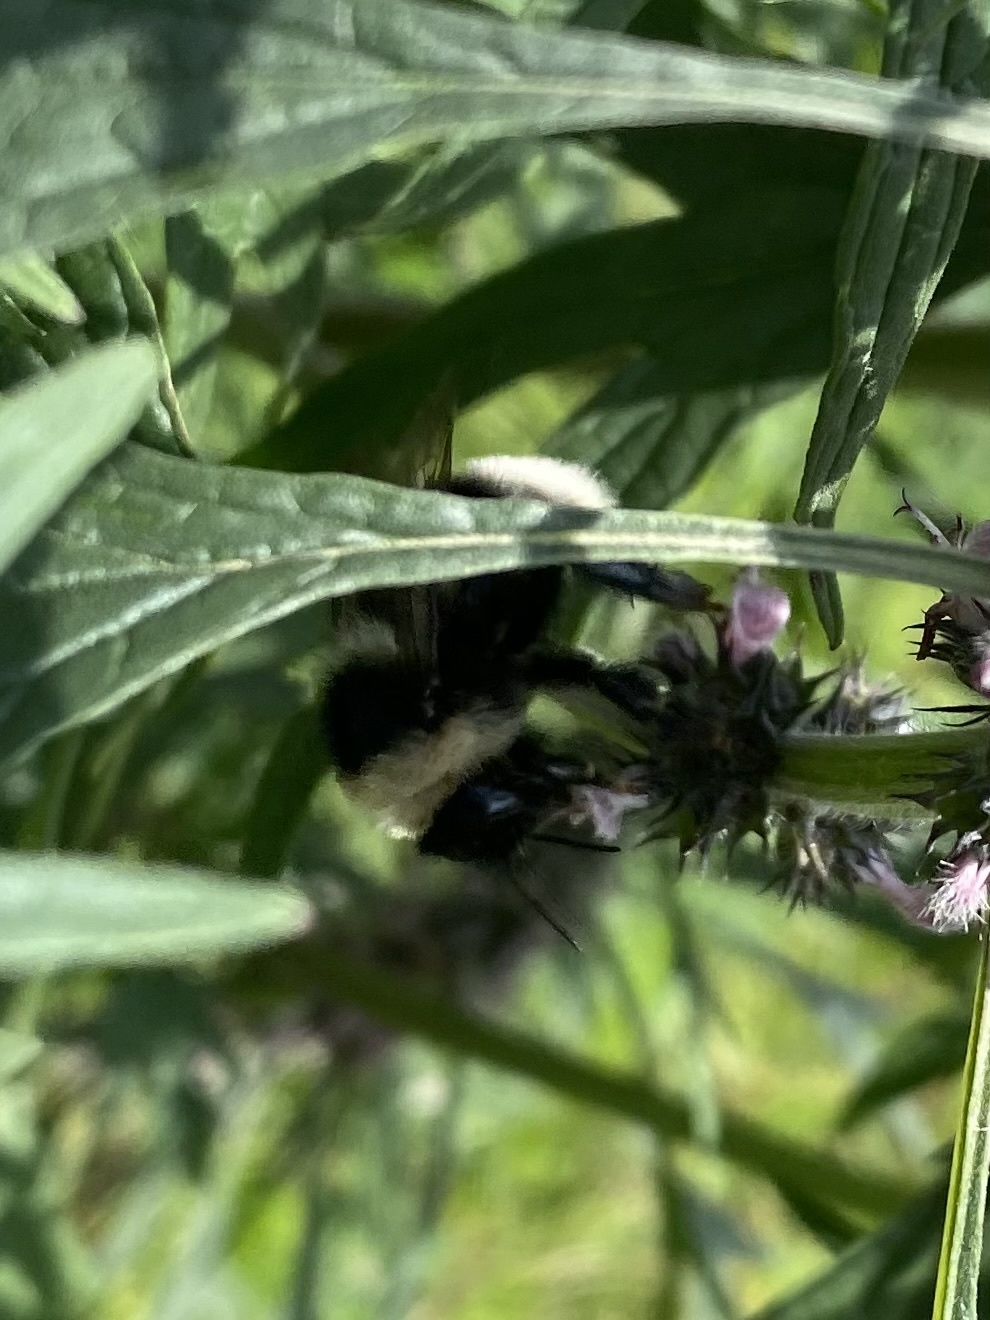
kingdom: Animalia
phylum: Arthropoda
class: Insecta
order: Hymenoptera
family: Apidae
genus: Bombus
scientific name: Bombus subterraneus
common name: Short-haired humble-bee
